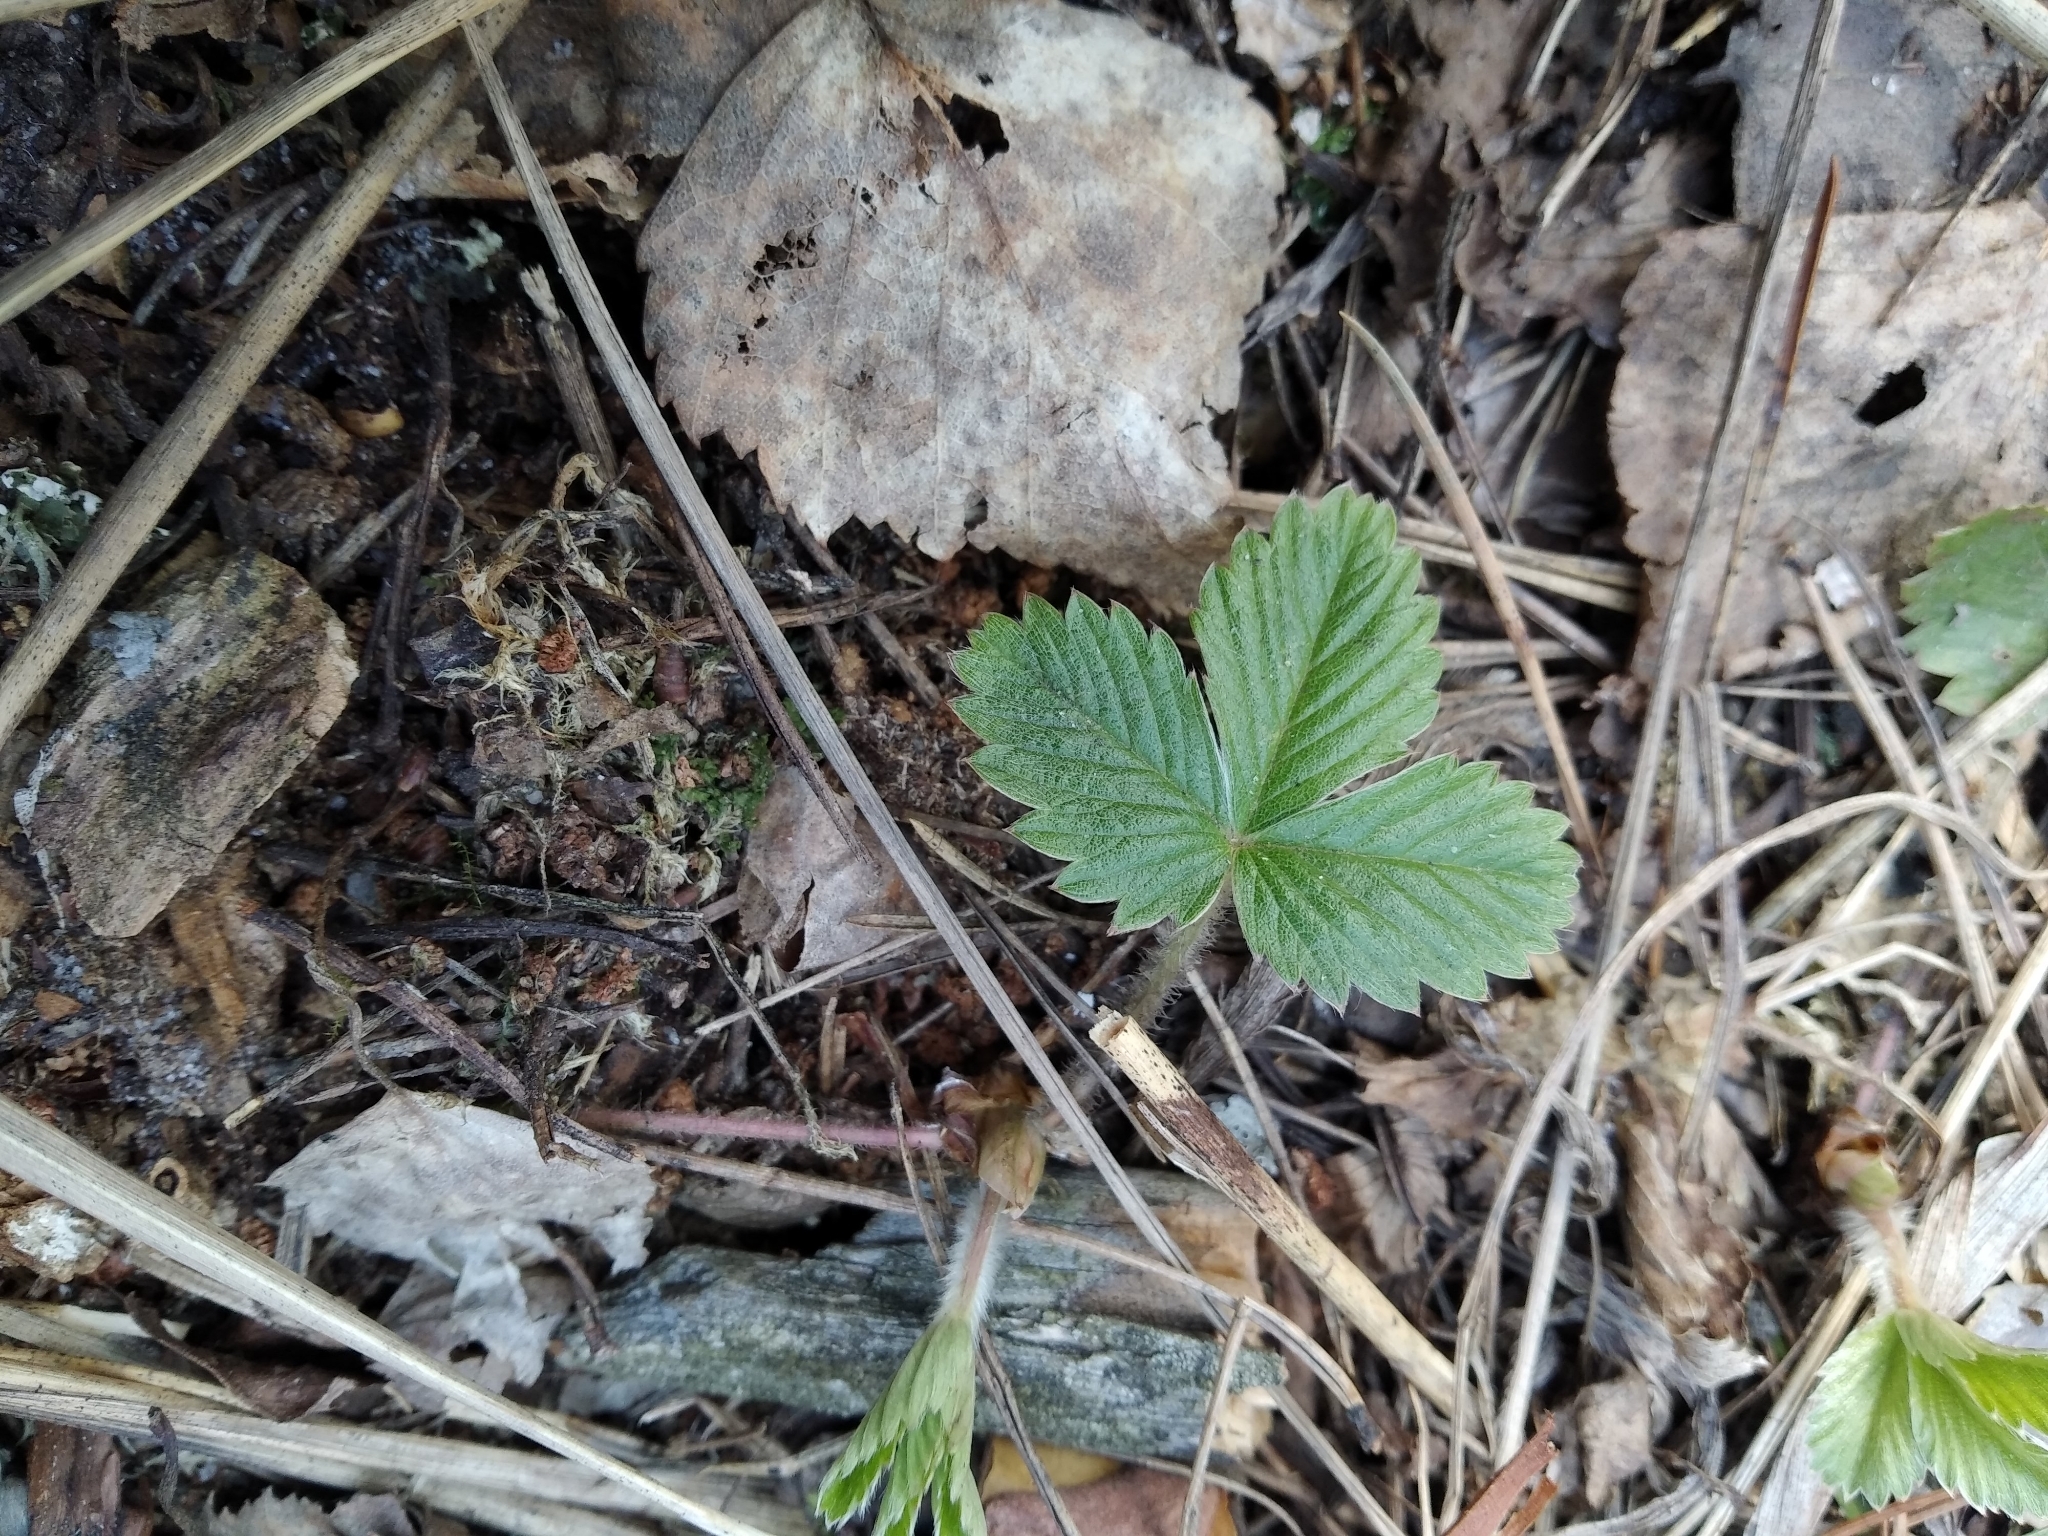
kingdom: Plantae
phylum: Tracheophyta
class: Magnoliopsida
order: Rosales
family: Rosaceae
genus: Fragaria
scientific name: Fragaria vesca
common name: Wild strawberry
